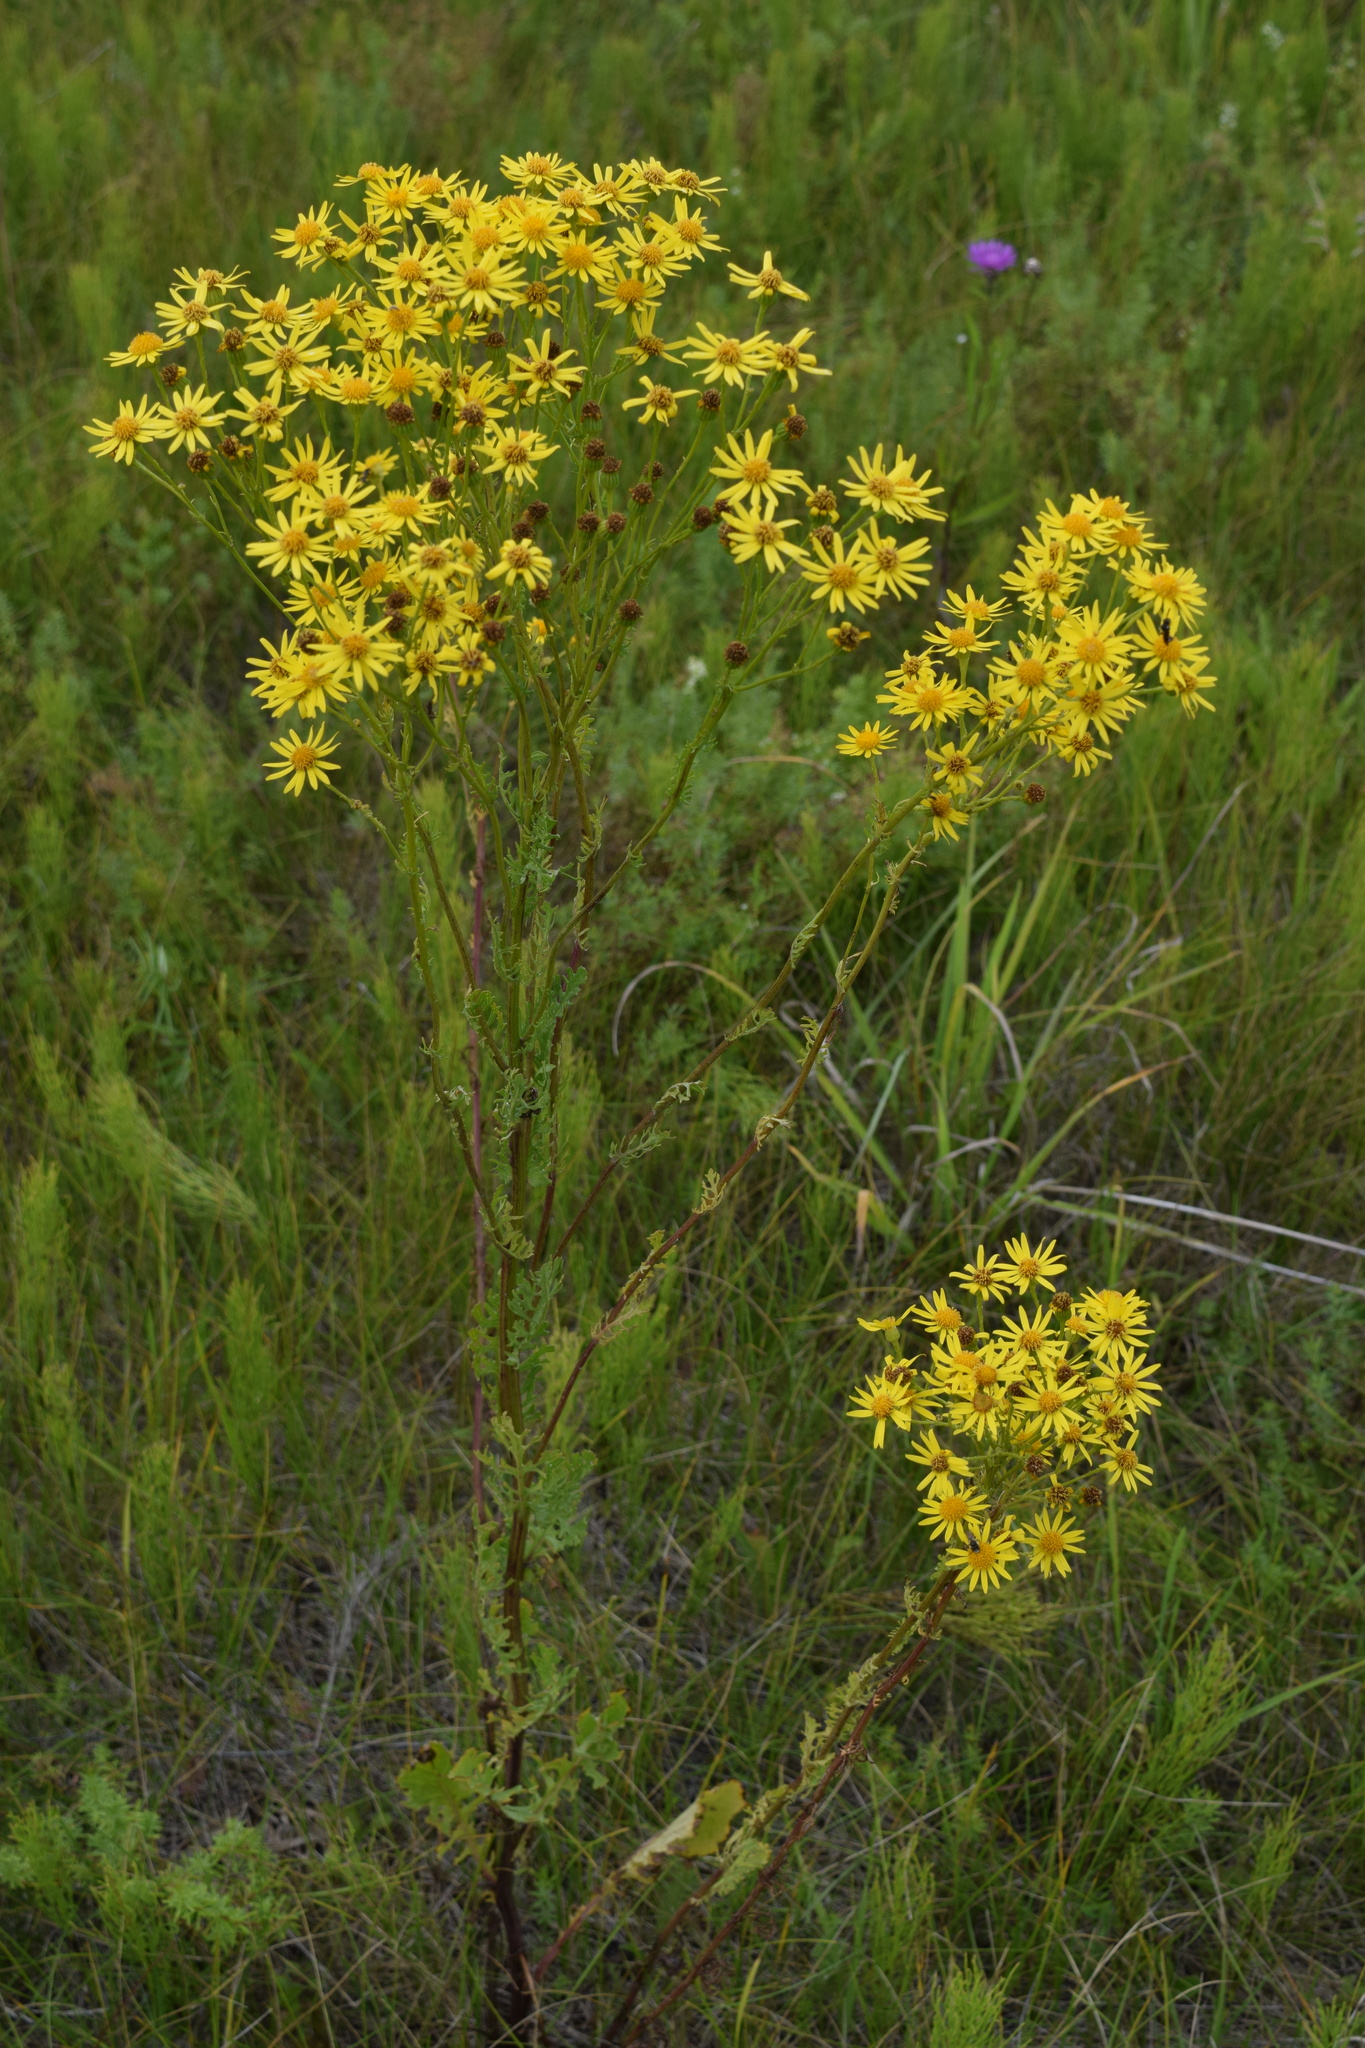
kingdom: Plantae
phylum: Tracheophyta
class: Magnoliopsida
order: Asterales
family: Asteraceae
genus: Jacobaea
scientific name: Jacobaea vulgaris
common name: Stinking willie
